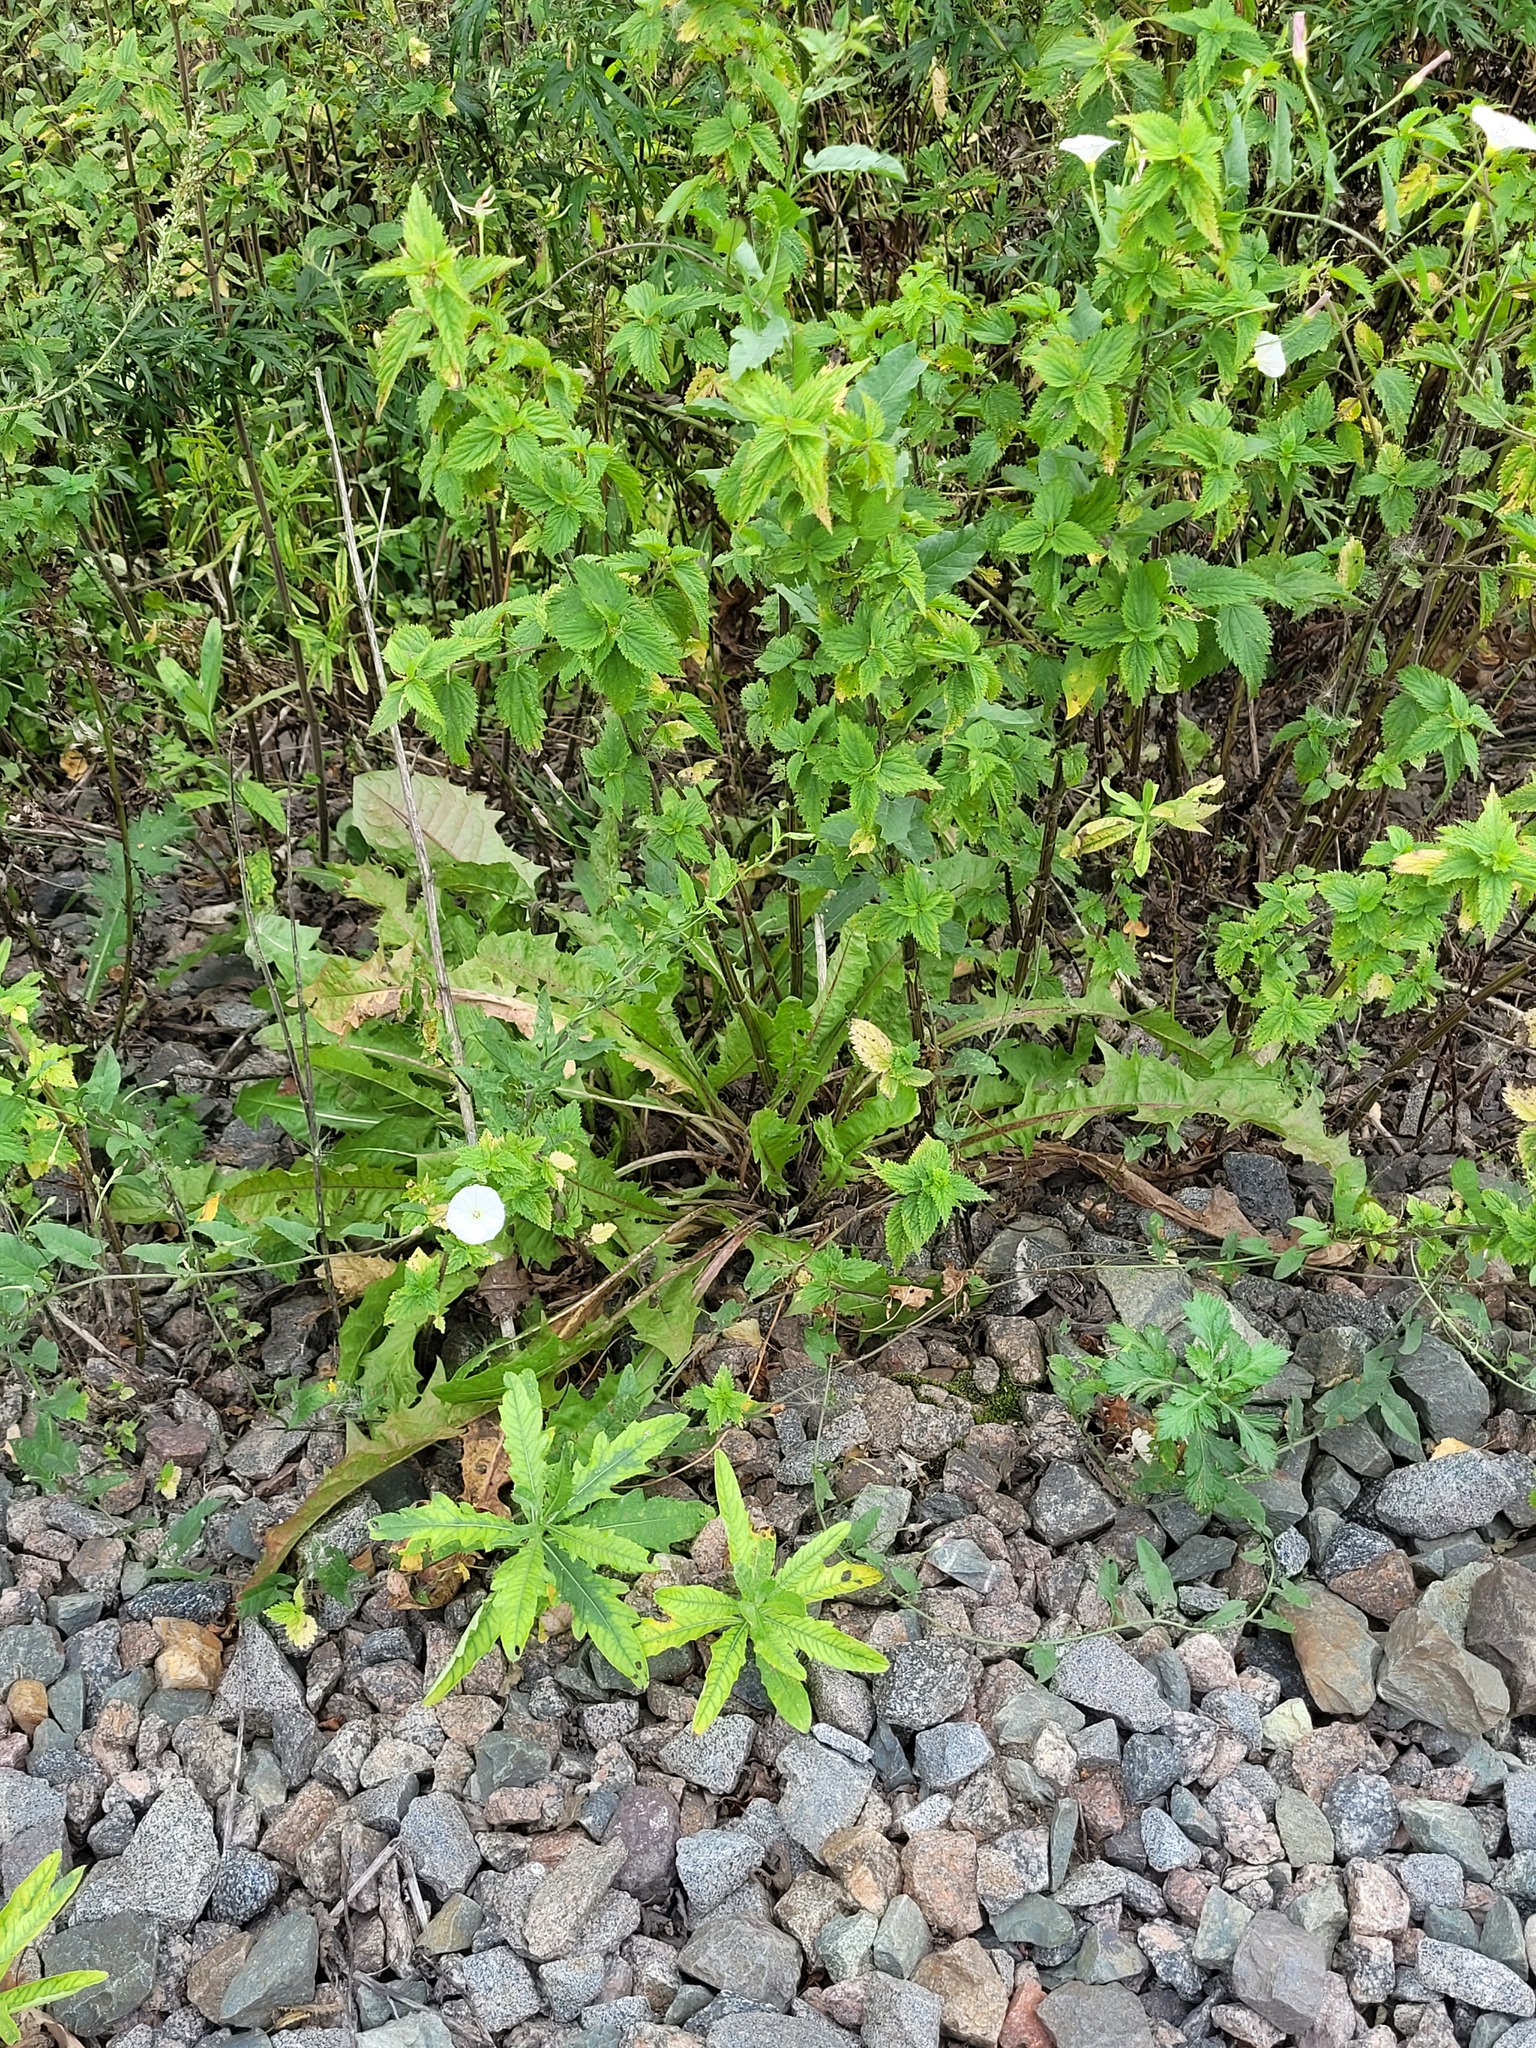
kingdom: Plantae
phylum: Tracheophyta
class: Magnoliopsida
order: Asterales
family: Asteraceae
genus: Taraxacum
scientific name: Taraxacum officinale
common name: Common dandelion
